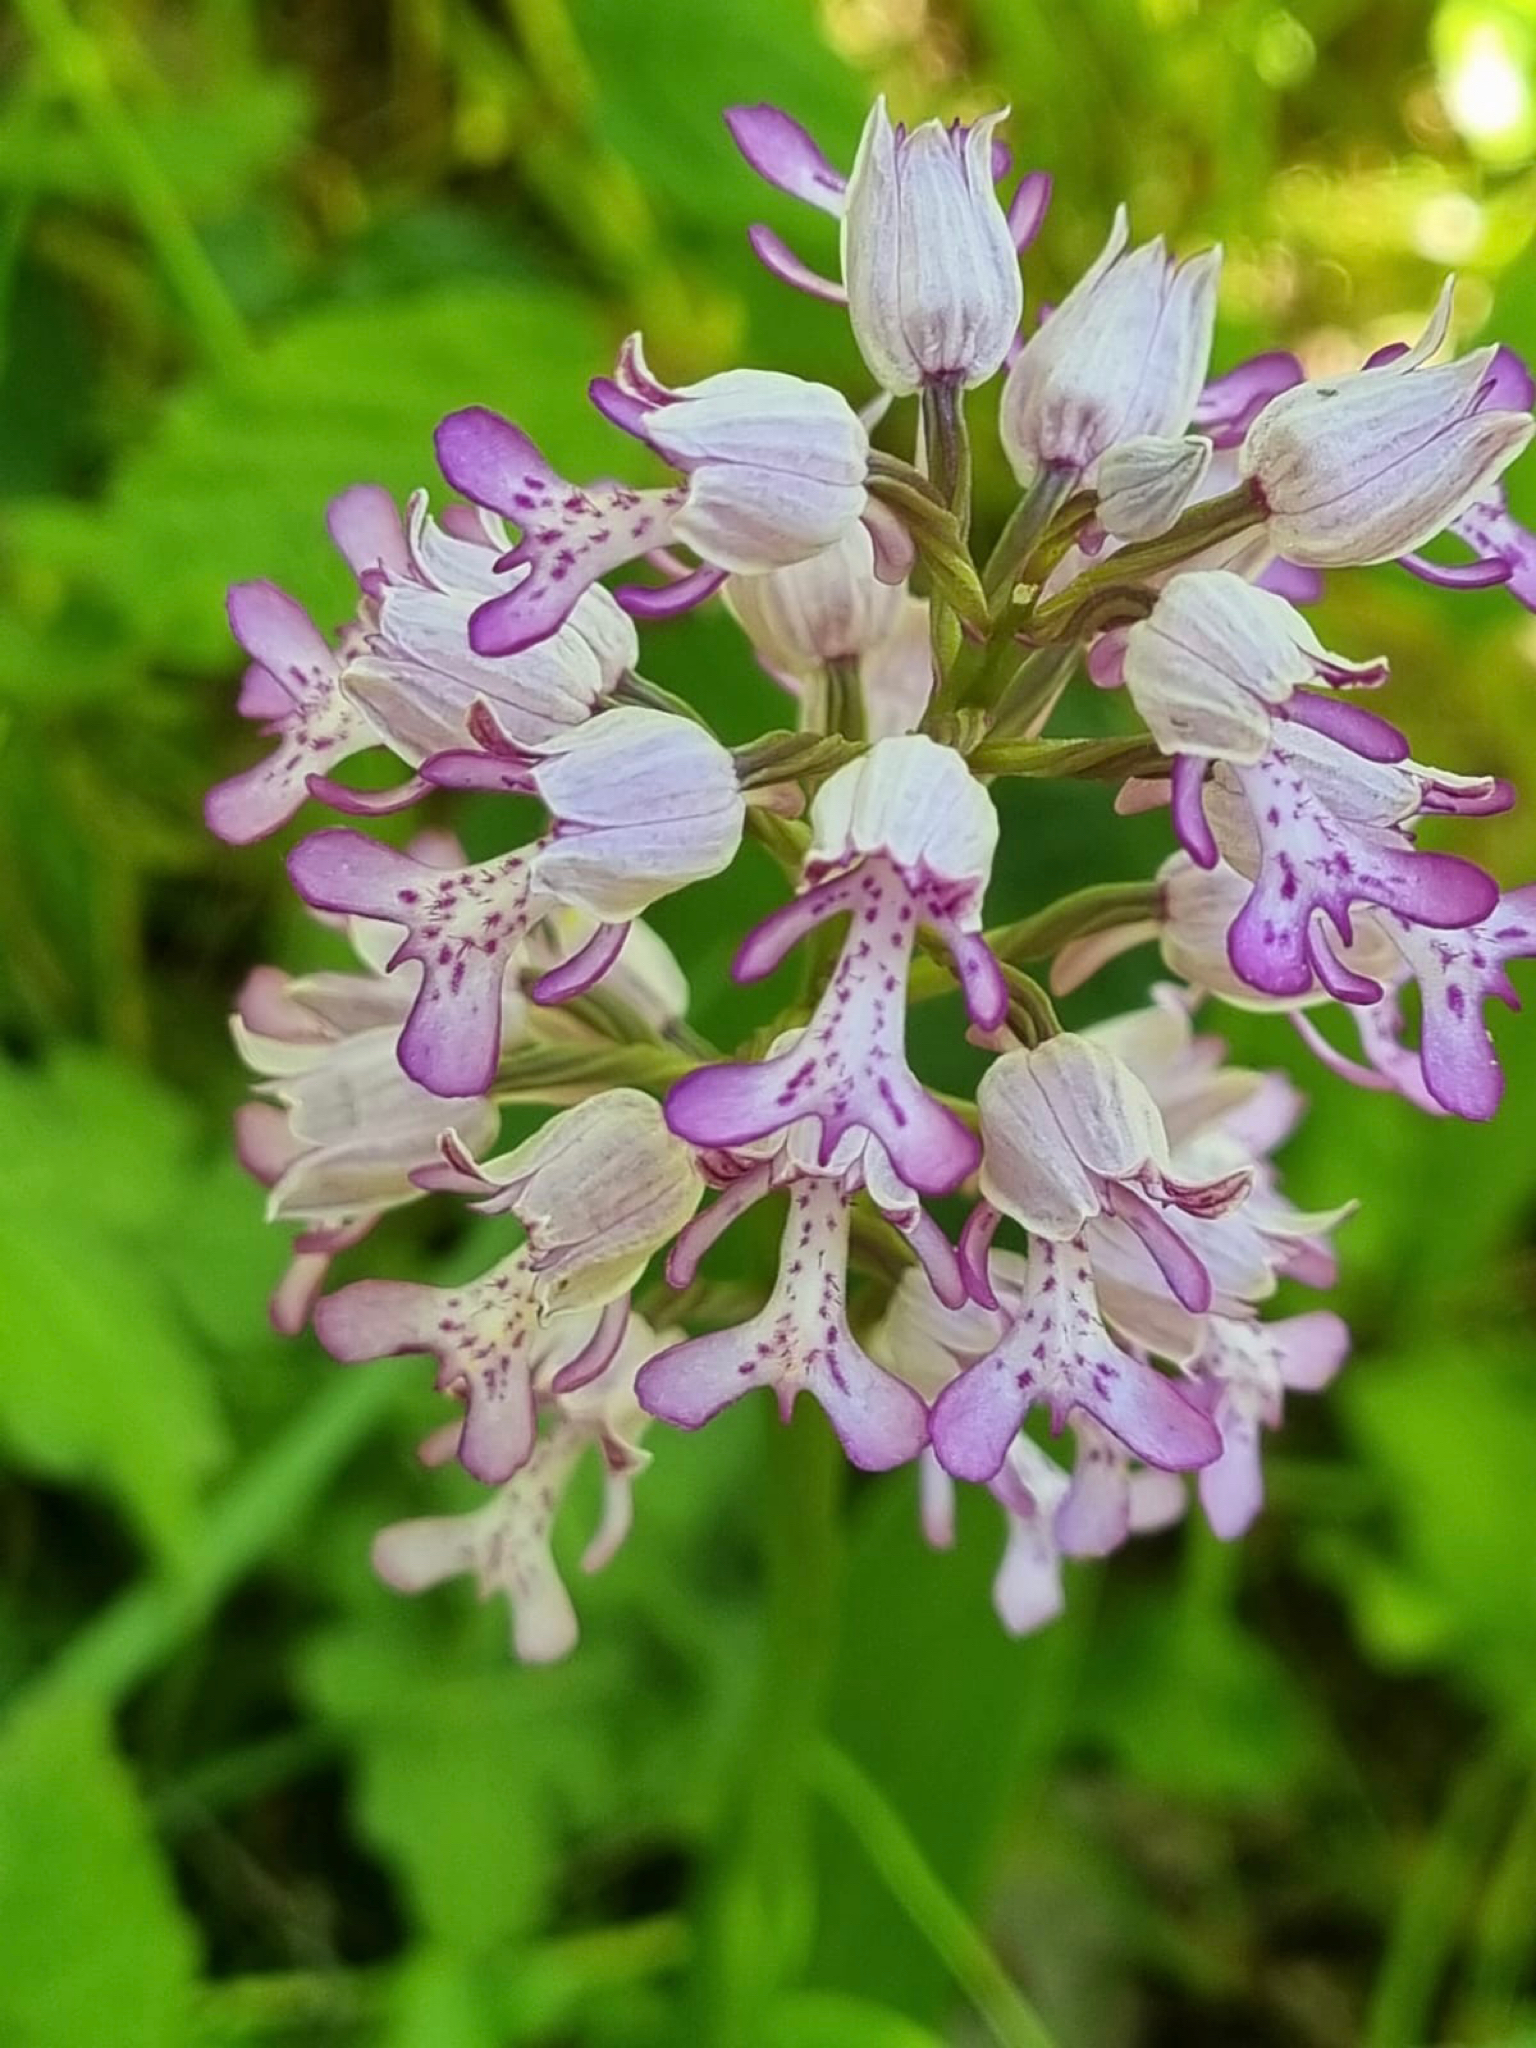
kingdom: Plantae
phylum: Tracheophyta
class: Liliopsida
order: Asparagales
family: Orchidaceae
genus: Orchis
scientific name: Orchis militaris
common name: Military orchid
